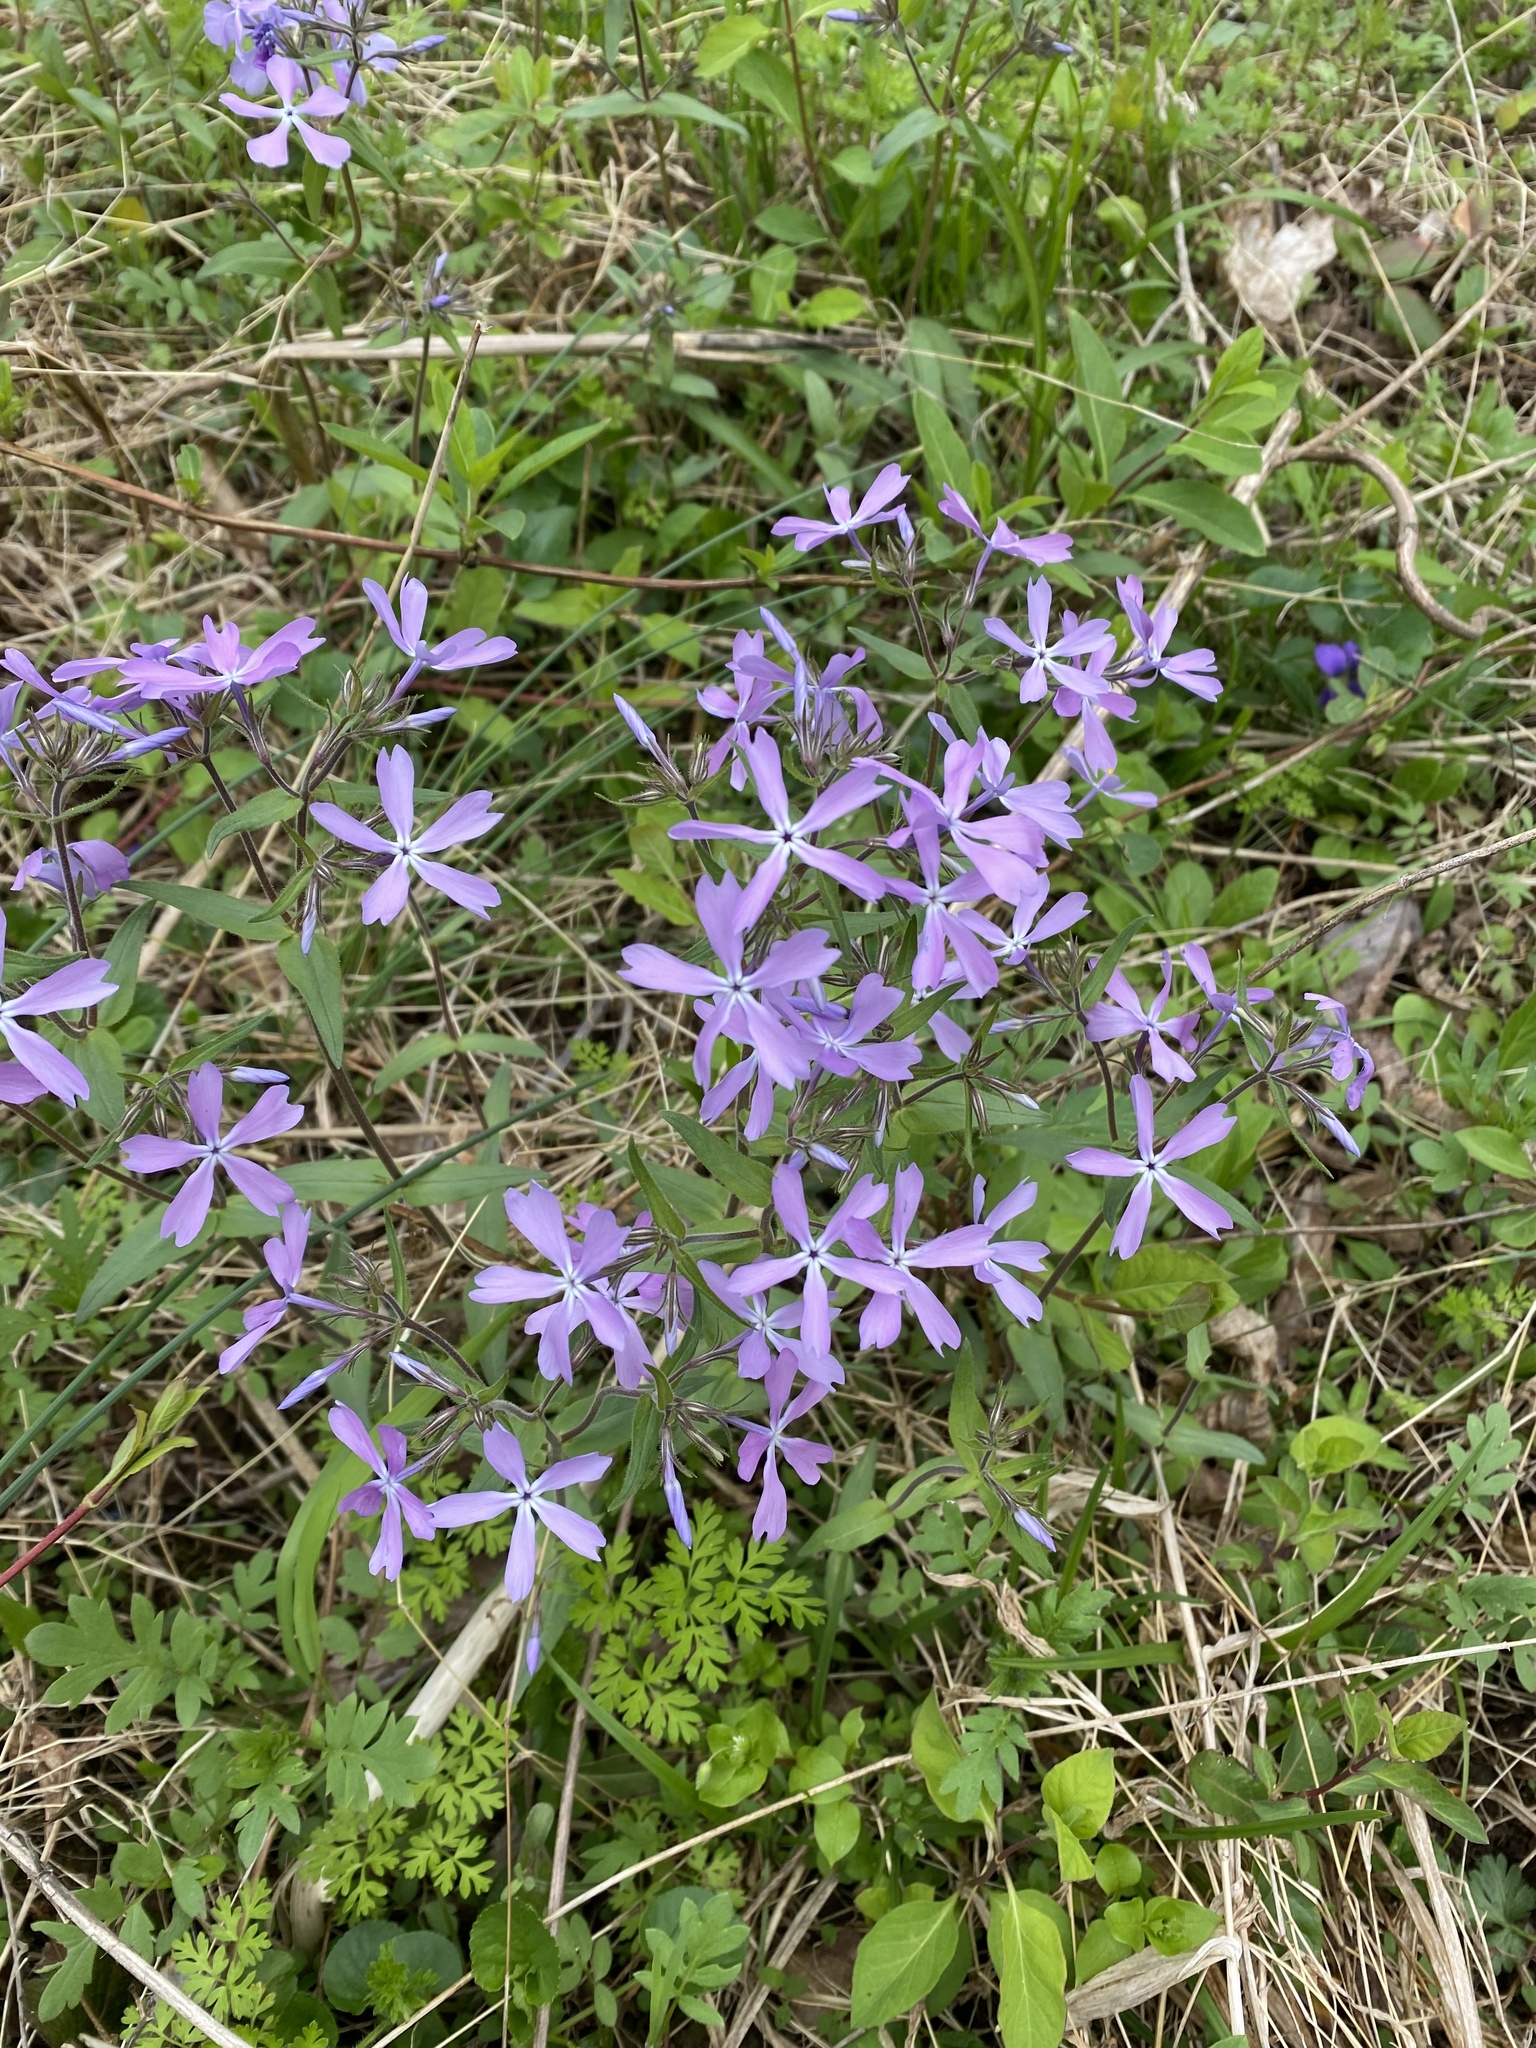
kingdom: Plantae
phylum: Tracheophyta
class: Magnoliopsida
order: Ericales
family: Polemoniaceae
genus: Phlox
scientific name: Phlox divaricata
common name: Blue phlox
